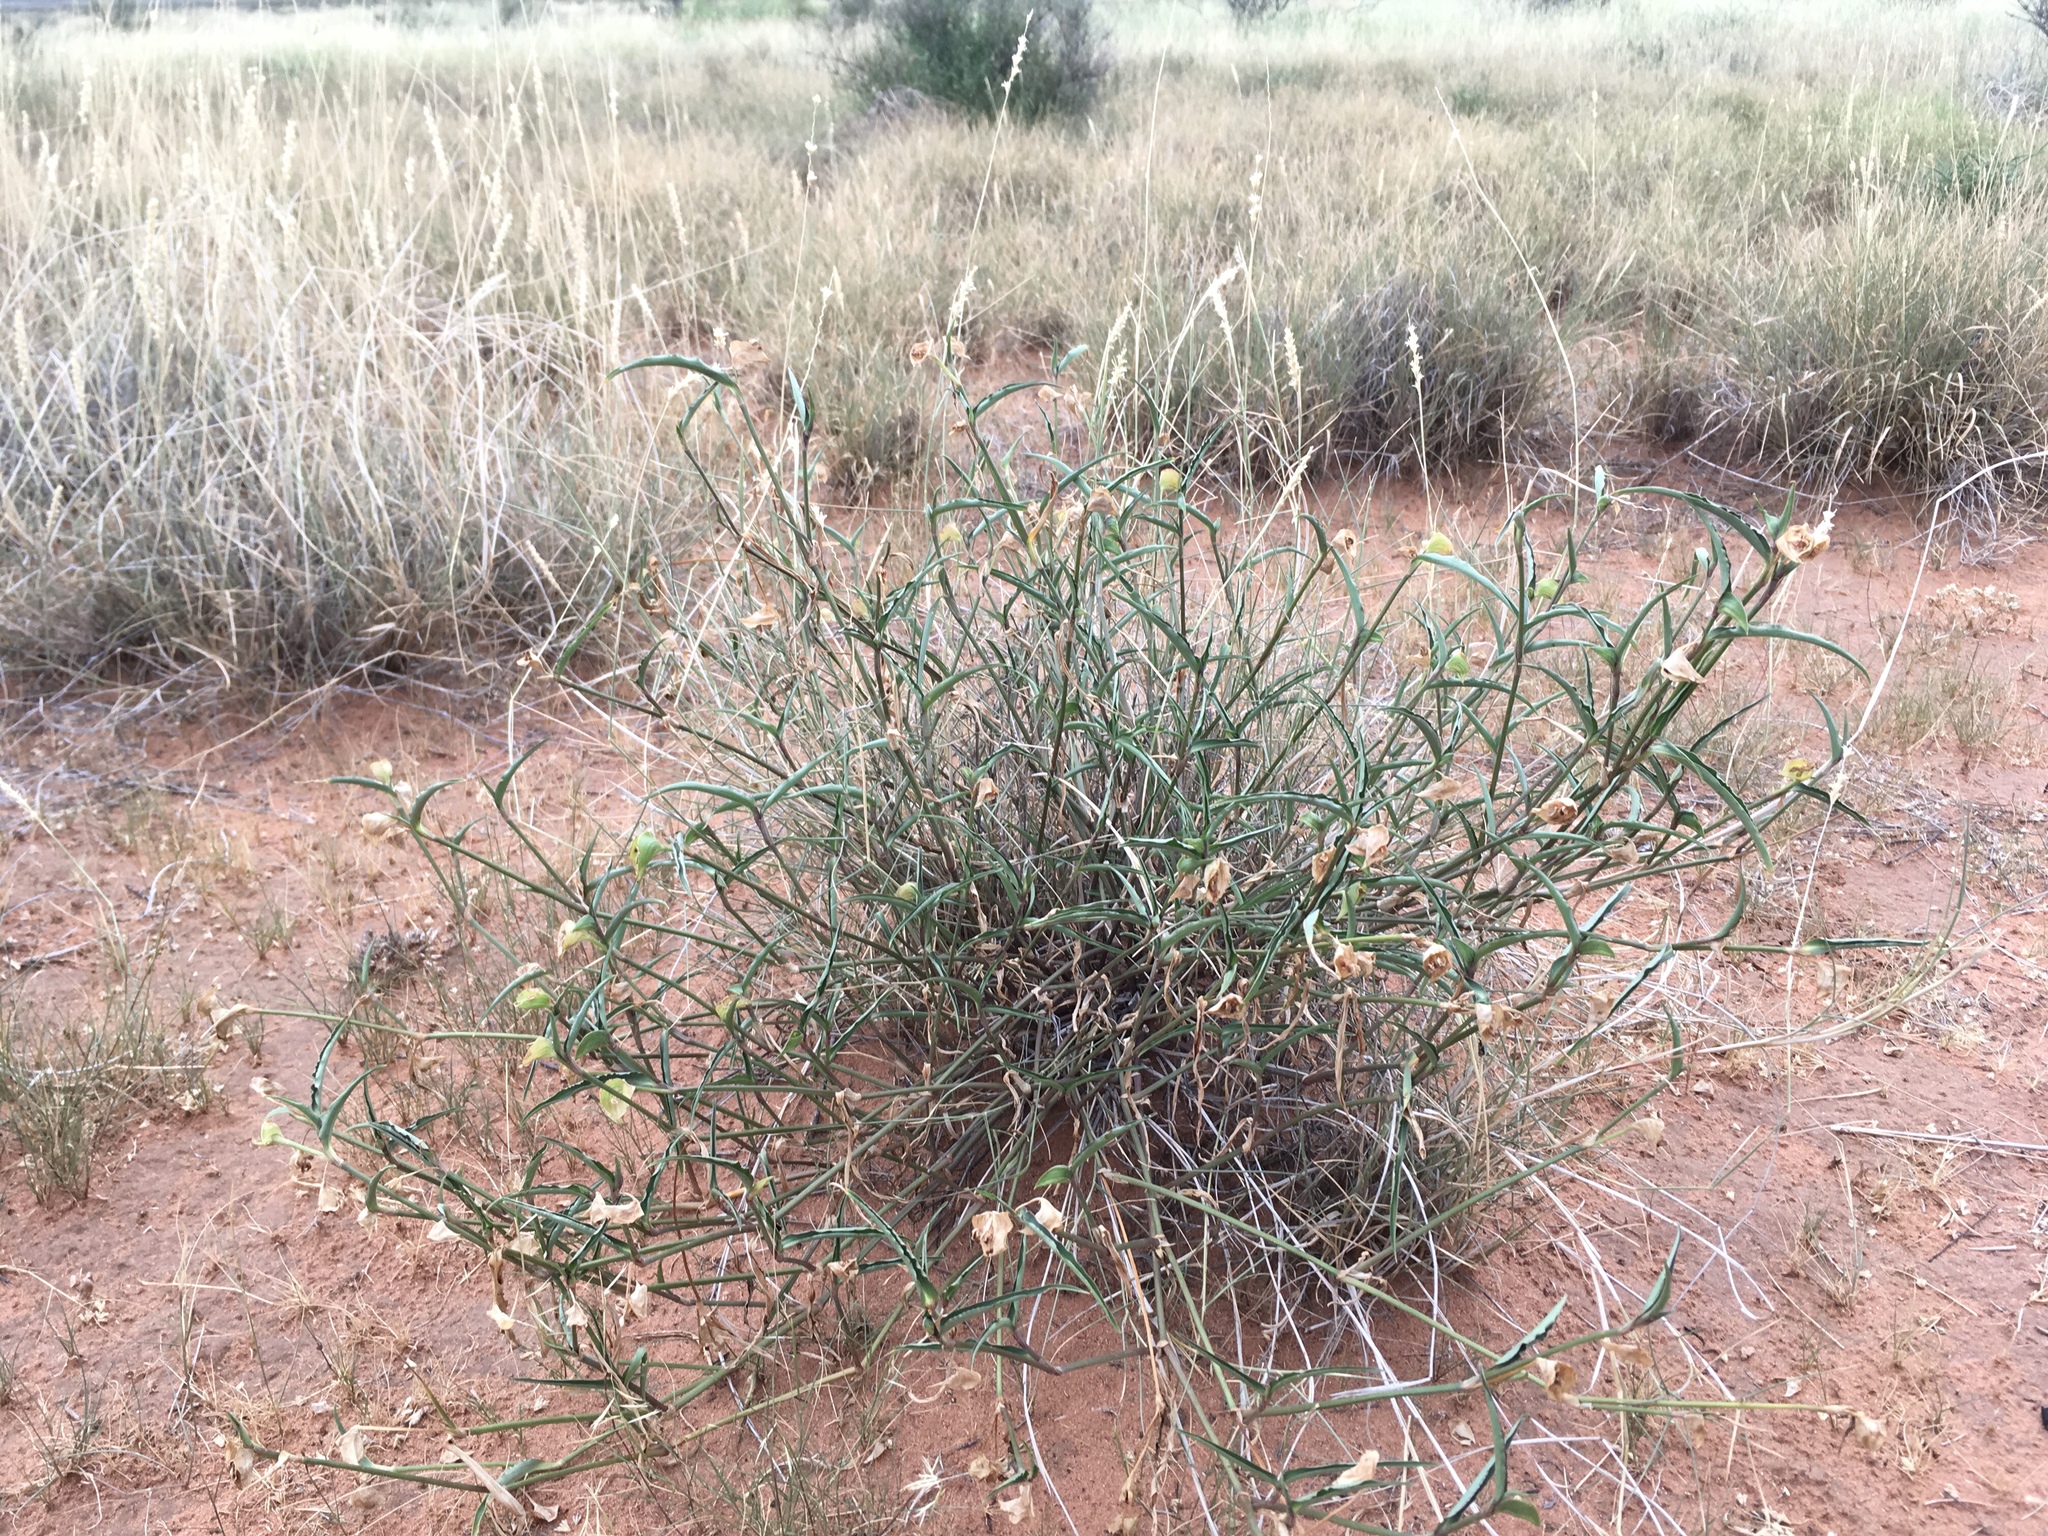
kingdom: Plantae
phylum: Tracheophyta
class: Liliopsida
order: Commelinales
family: Commelinaceae
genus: Commelina
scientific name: Commelina erecta
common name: Blousel blommetjie
